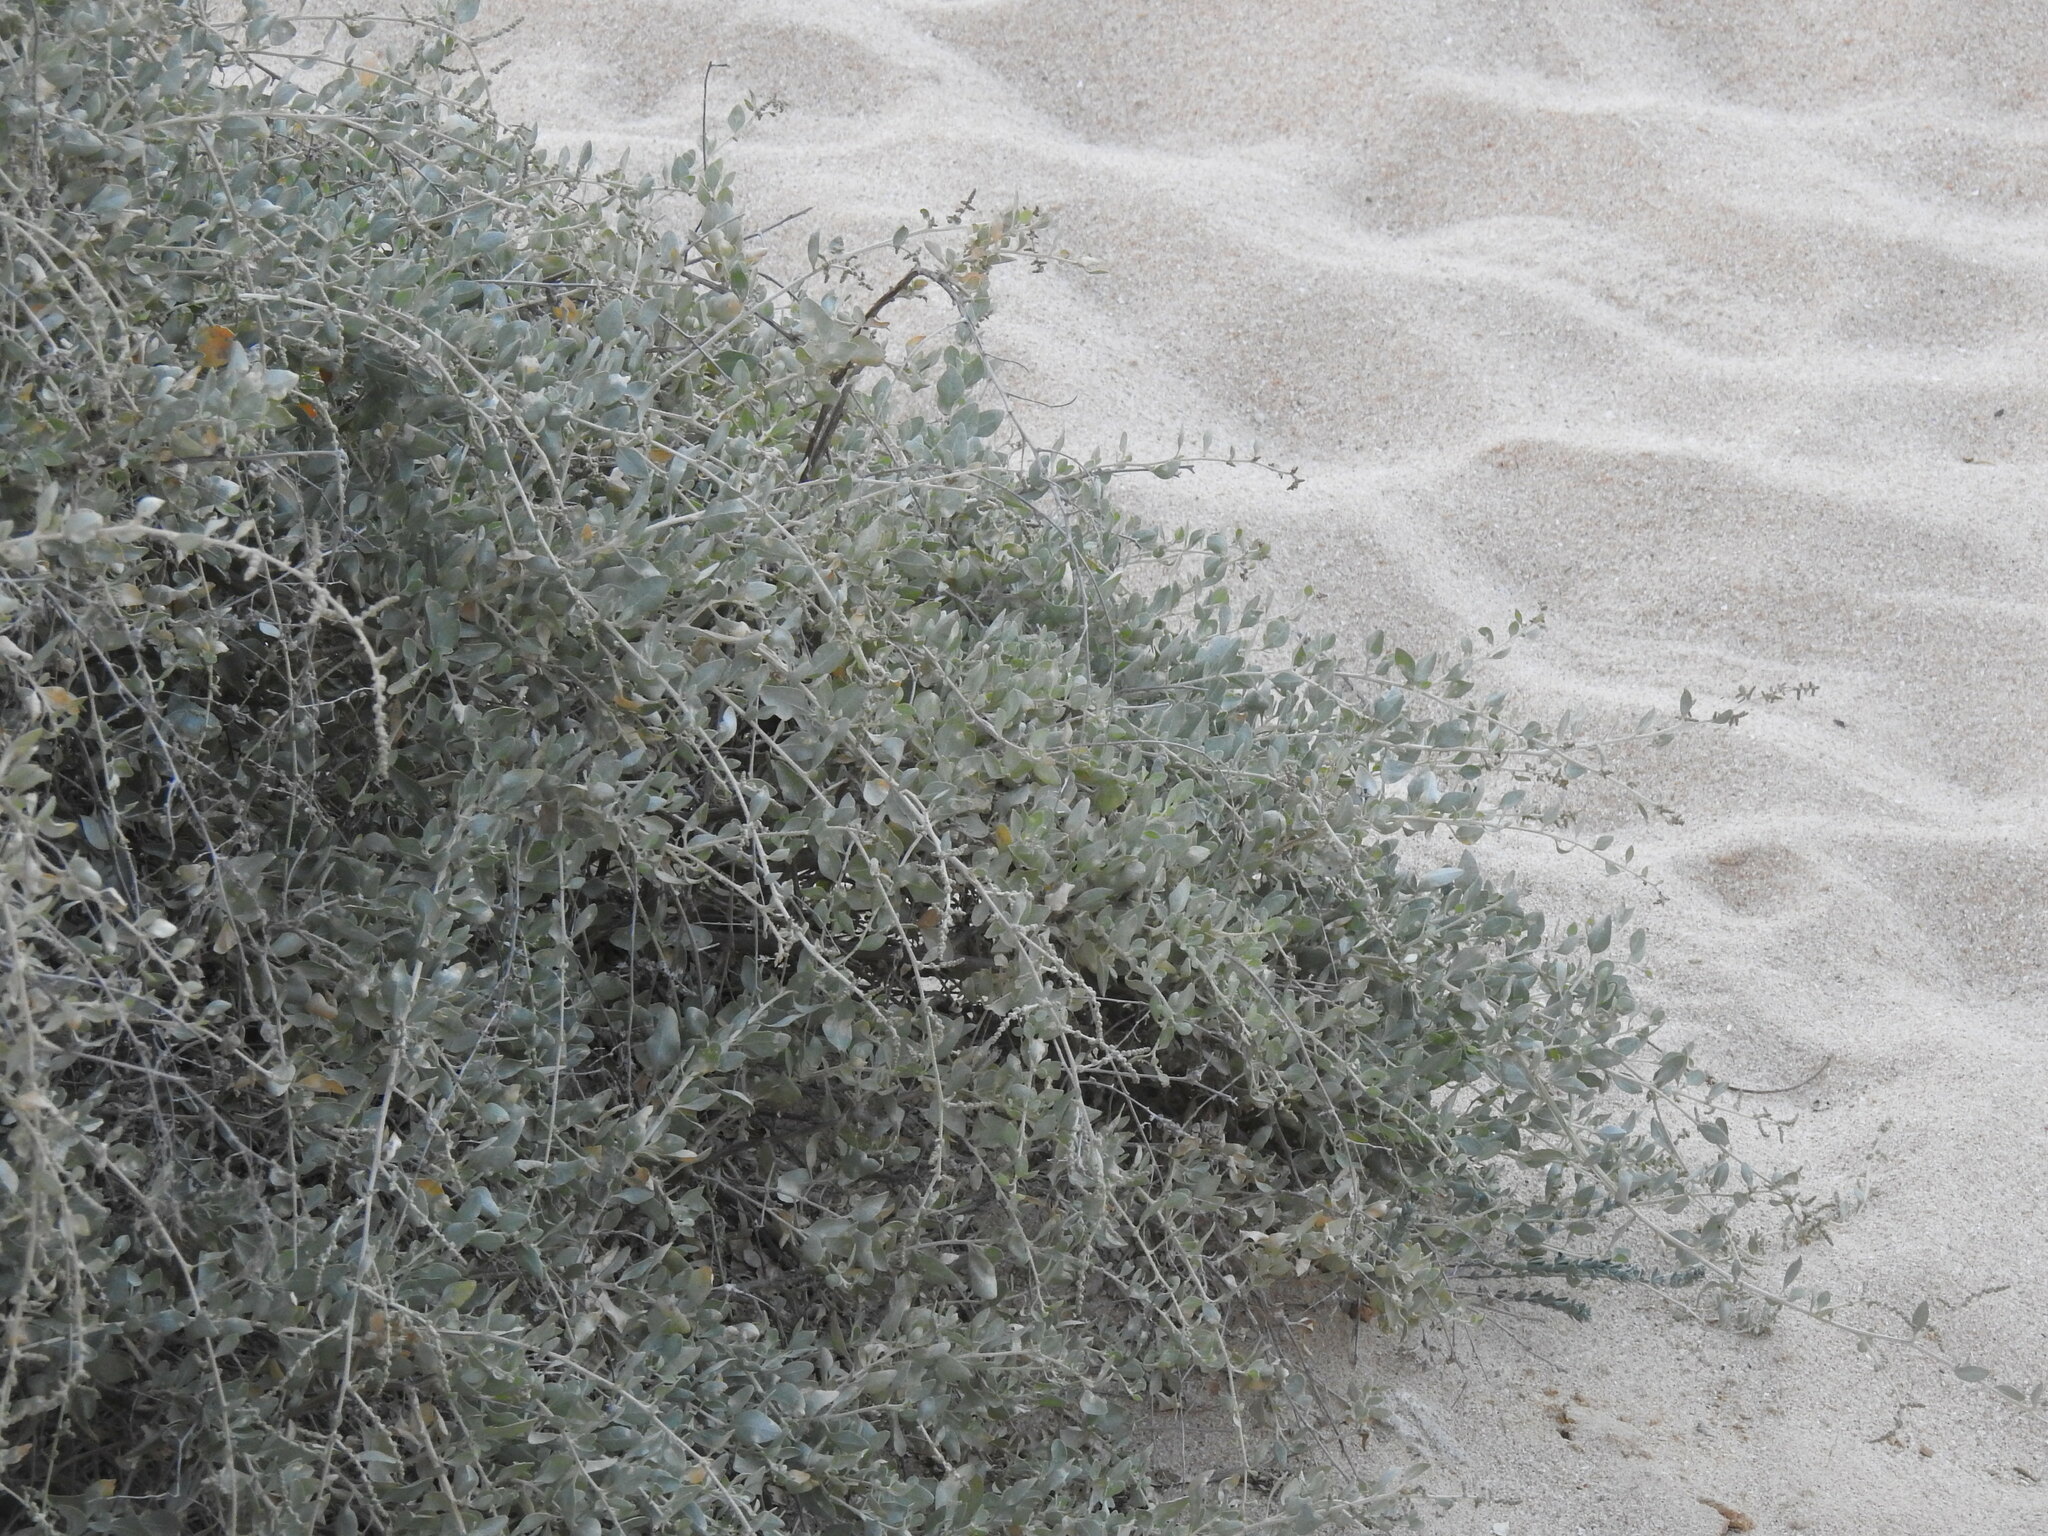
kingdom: Plantae
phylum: Tracheophyta
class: Magnoliopsida
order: Caryophyllales
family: Amaranthaceae
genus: Atriplex
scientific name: Atriplex halimus
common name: Shrubby orache
